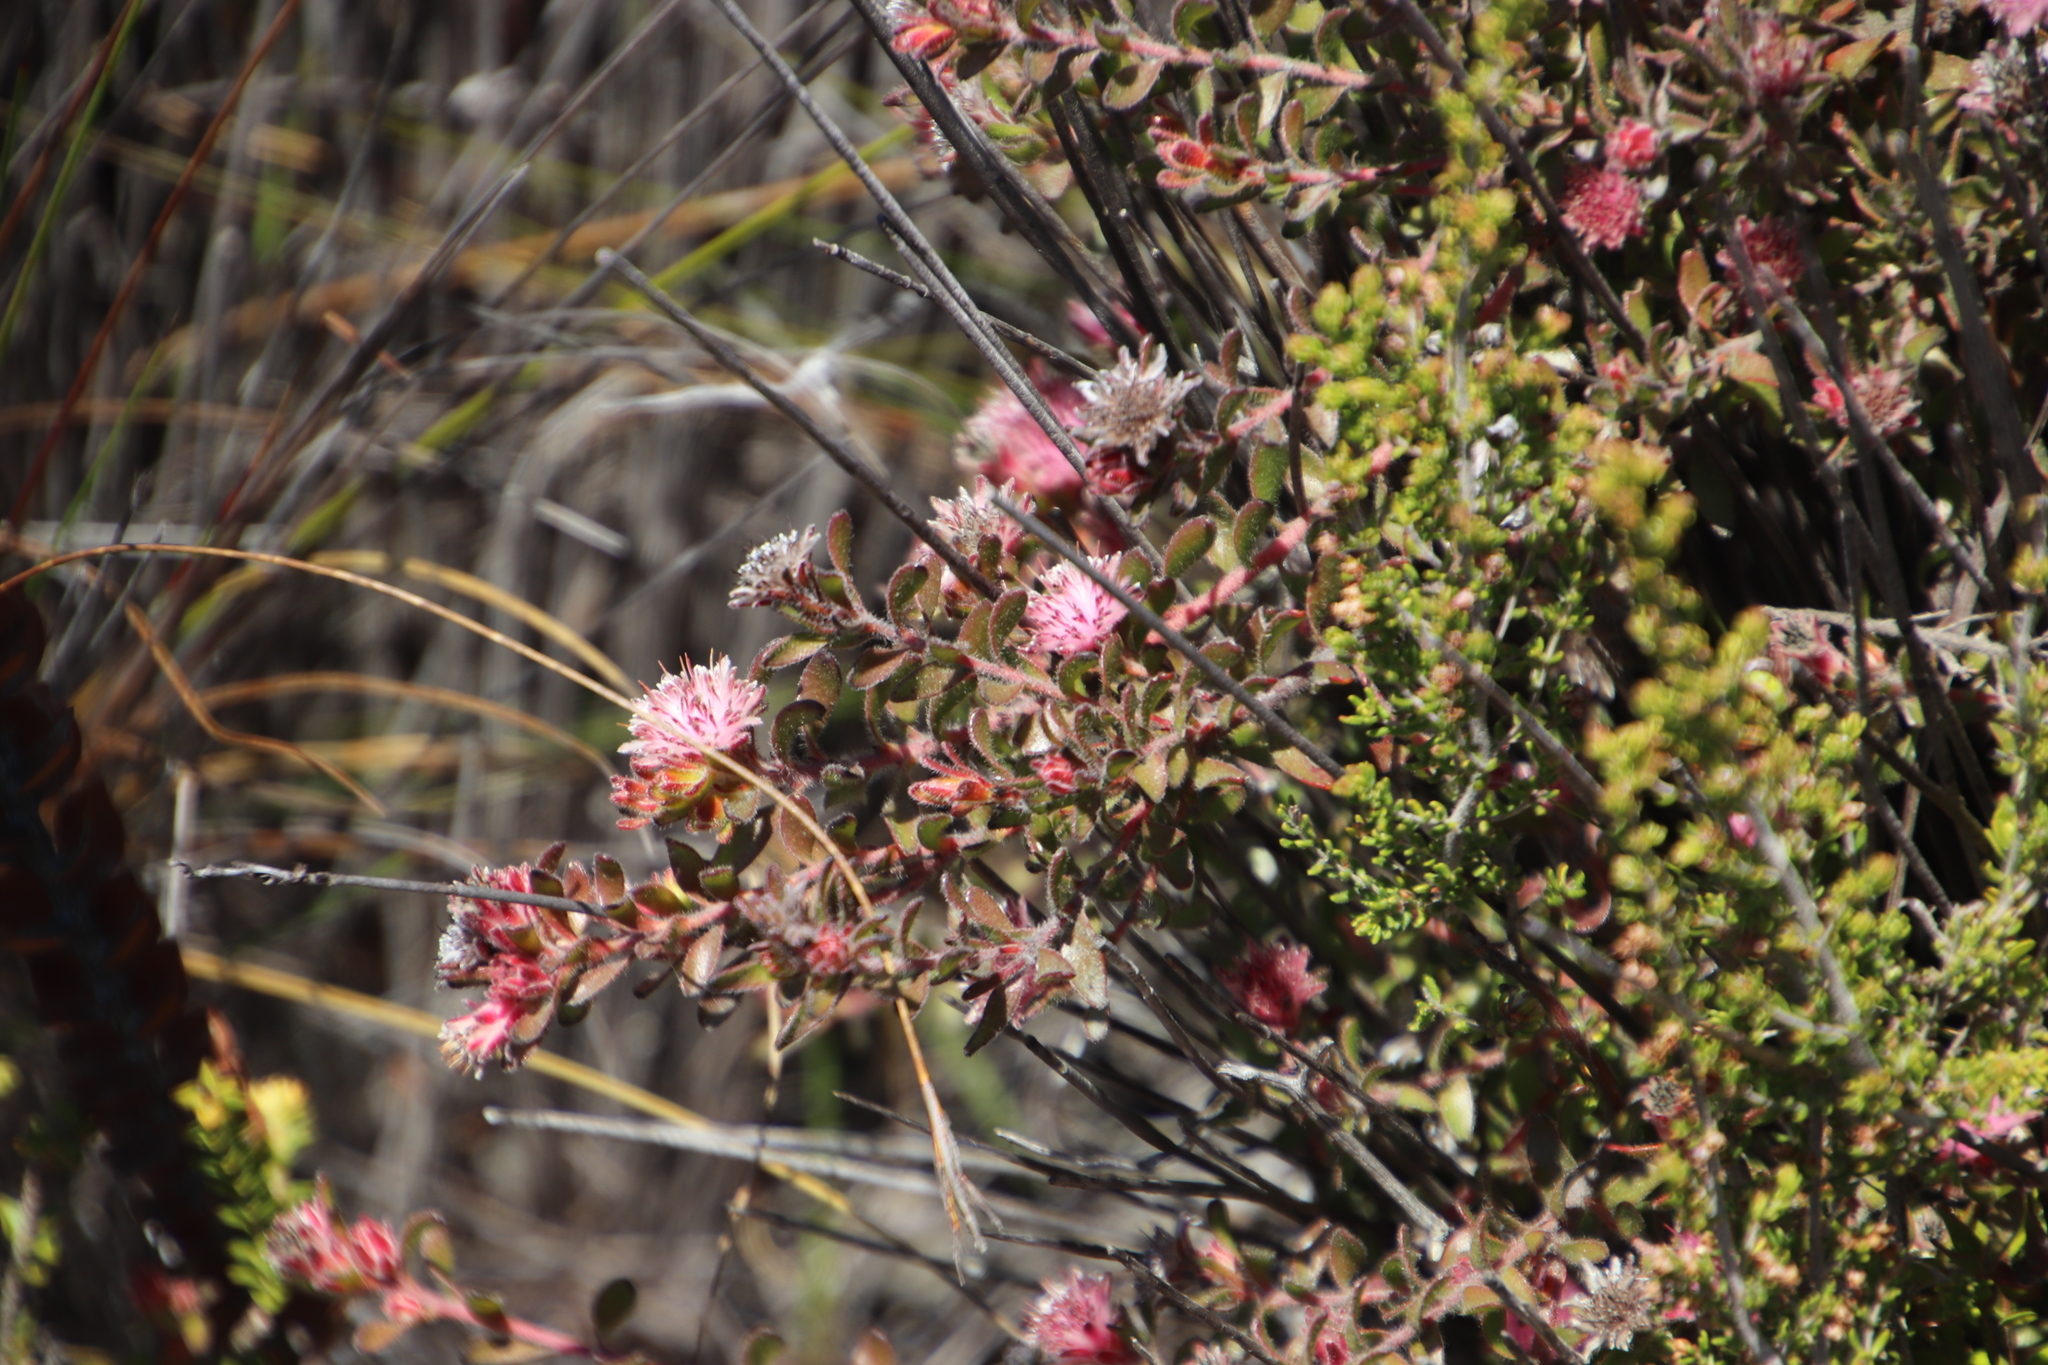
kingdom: Plantae
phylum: Tracheophyta
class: Magnoliopsida
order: Proteales
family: Proteaceae
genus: Diastella
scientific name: Diastella divaricata
